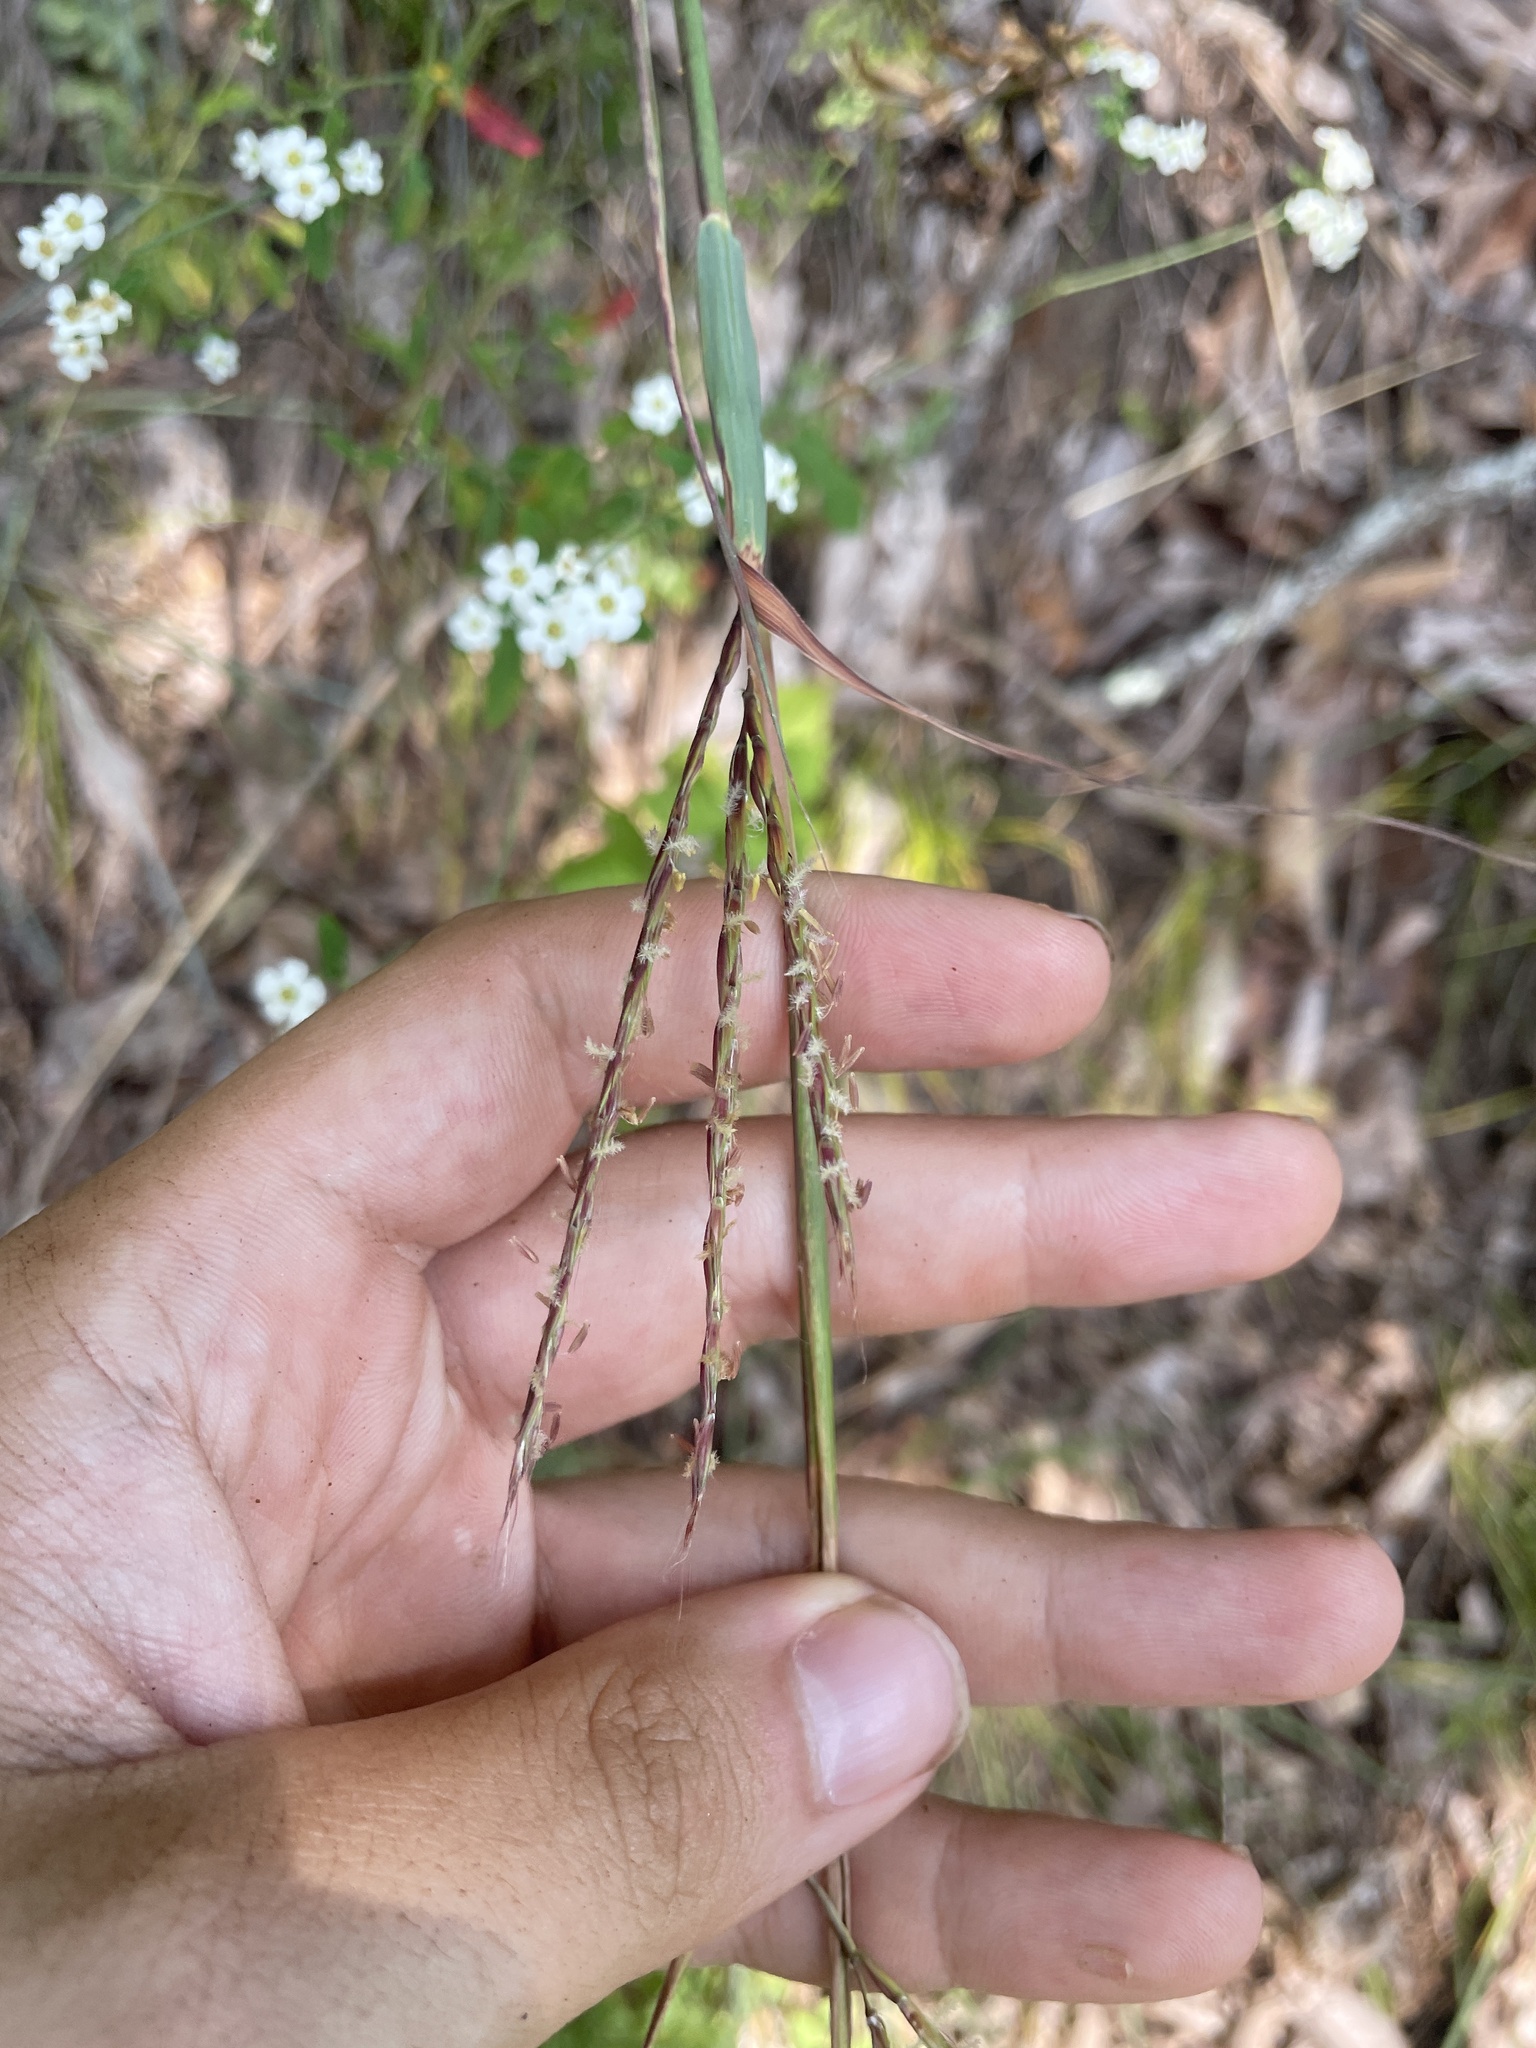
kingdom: Plantae
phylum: Tracheophyta
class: Liliopsida
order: Poales
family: Poaceae
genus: Andropogon
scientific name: Andropogon gerardi
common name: Big bluestem
